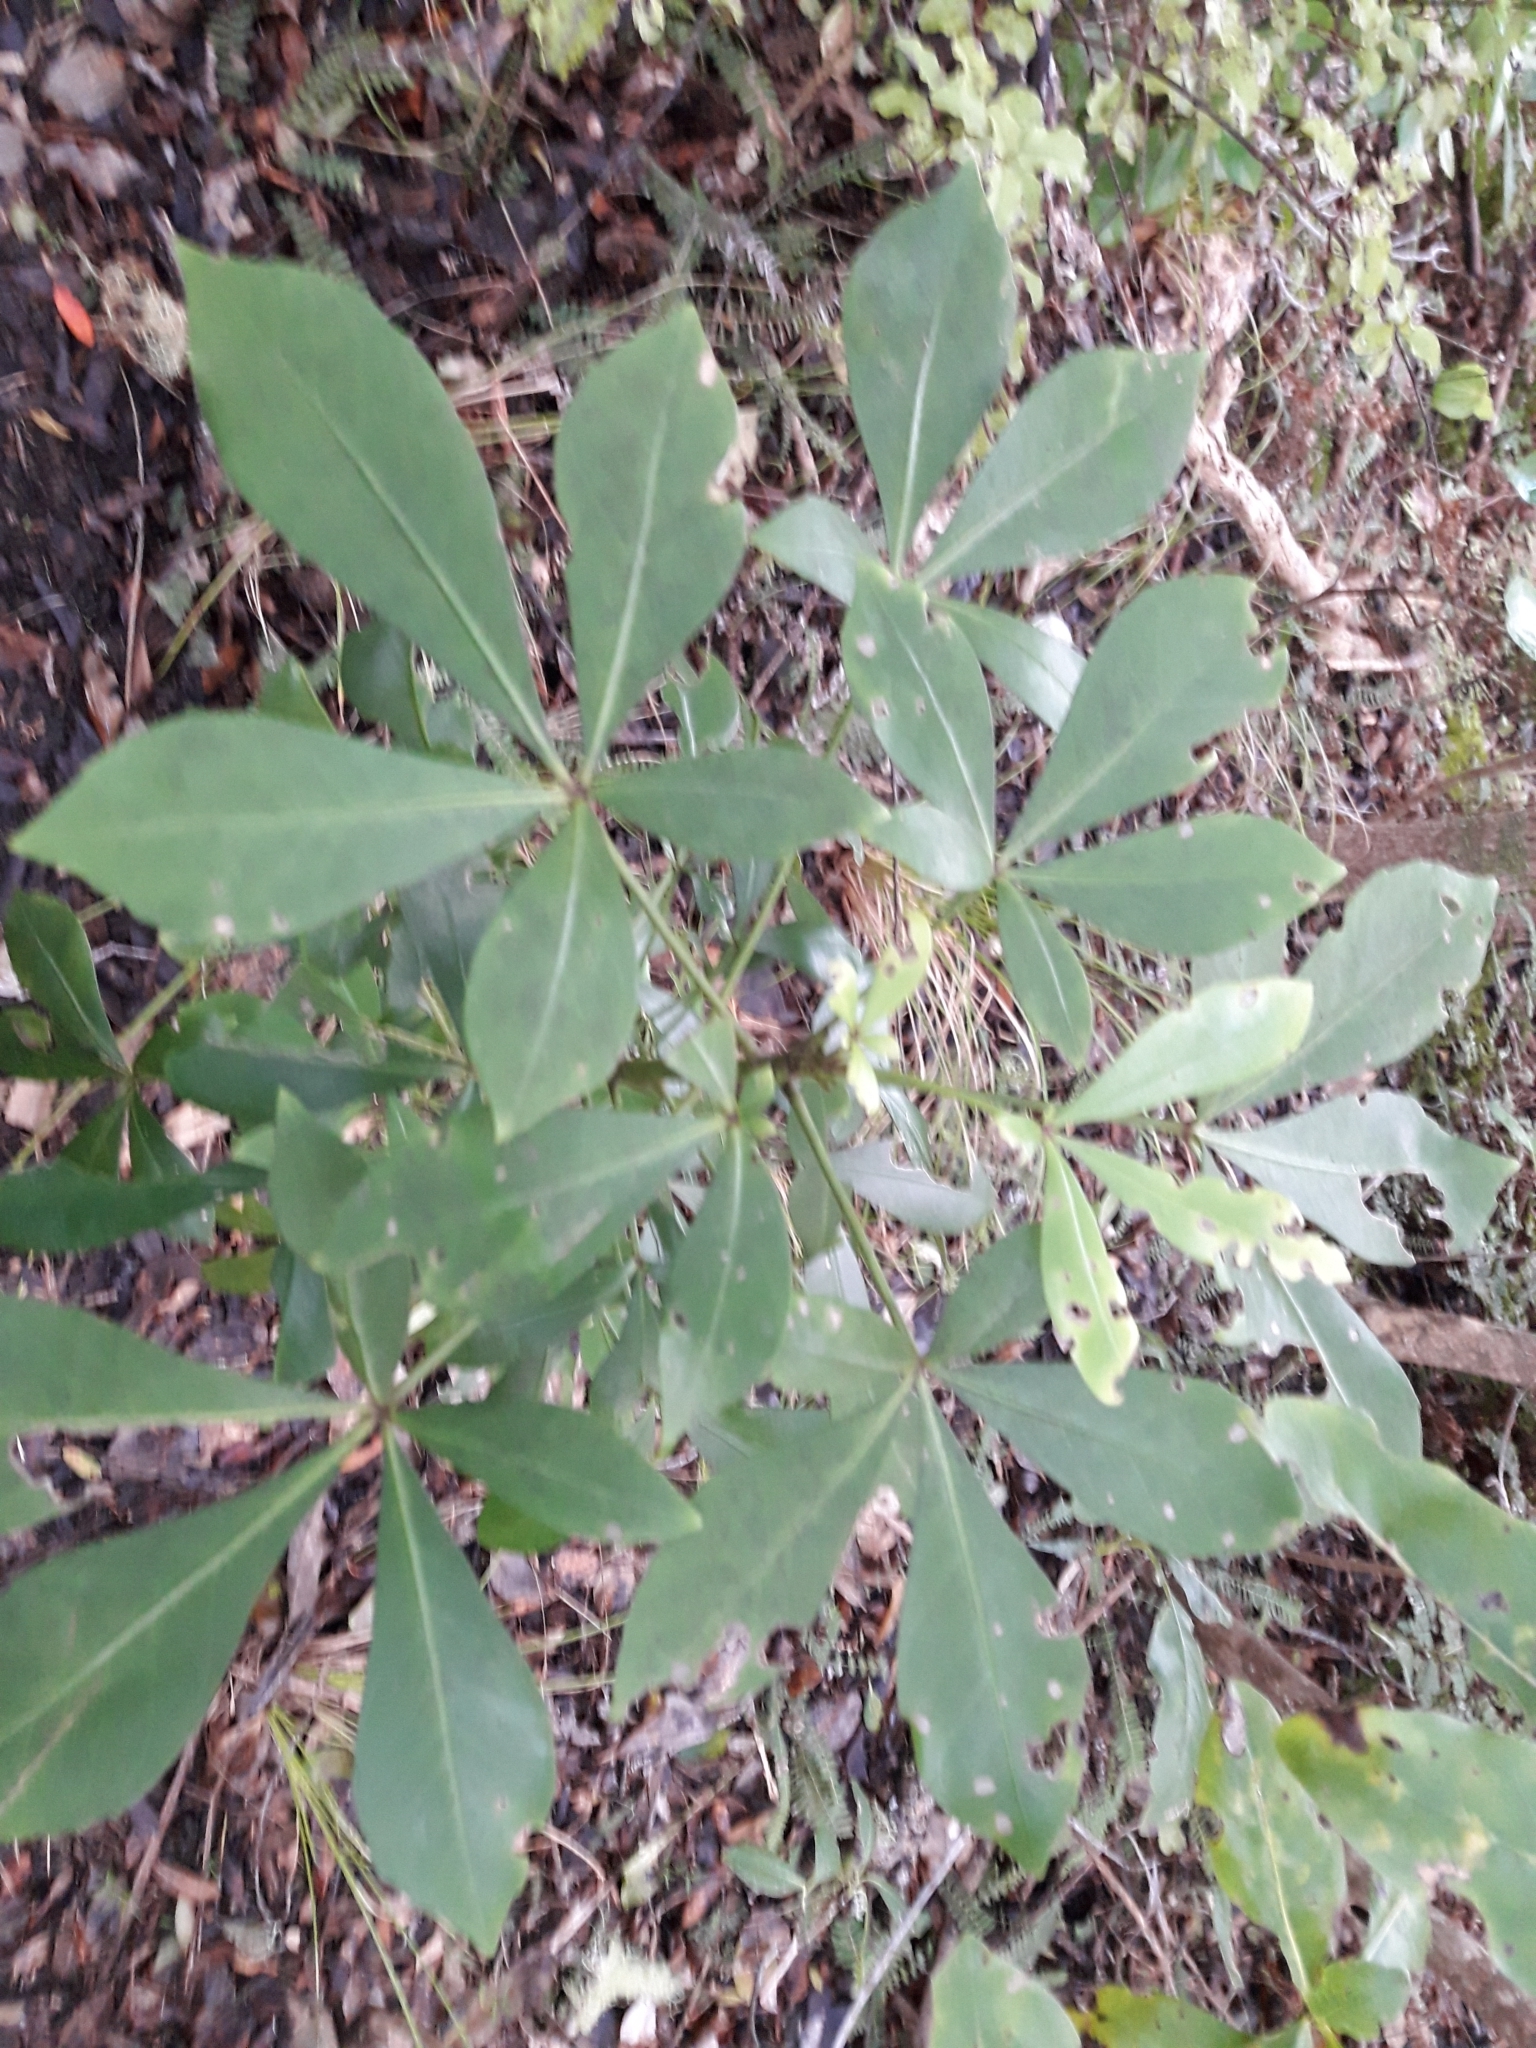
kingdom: Plantae
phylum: Tracheophyta
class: Magnoliopsida
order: Apiales
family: Araliaceae
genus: Pseudopanax
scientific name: Pseudopanax lessonii
